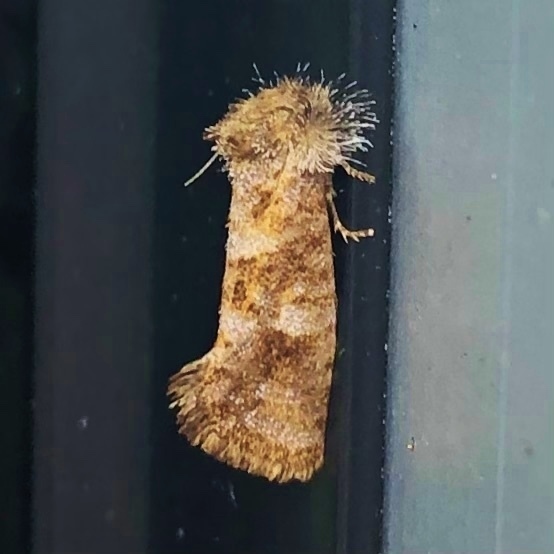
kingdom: Animalia
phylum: Arthropoda
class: Insecta
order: Lepidoptera
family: Tineidae
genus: Acrolophus
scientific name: Acrolophus panamae
